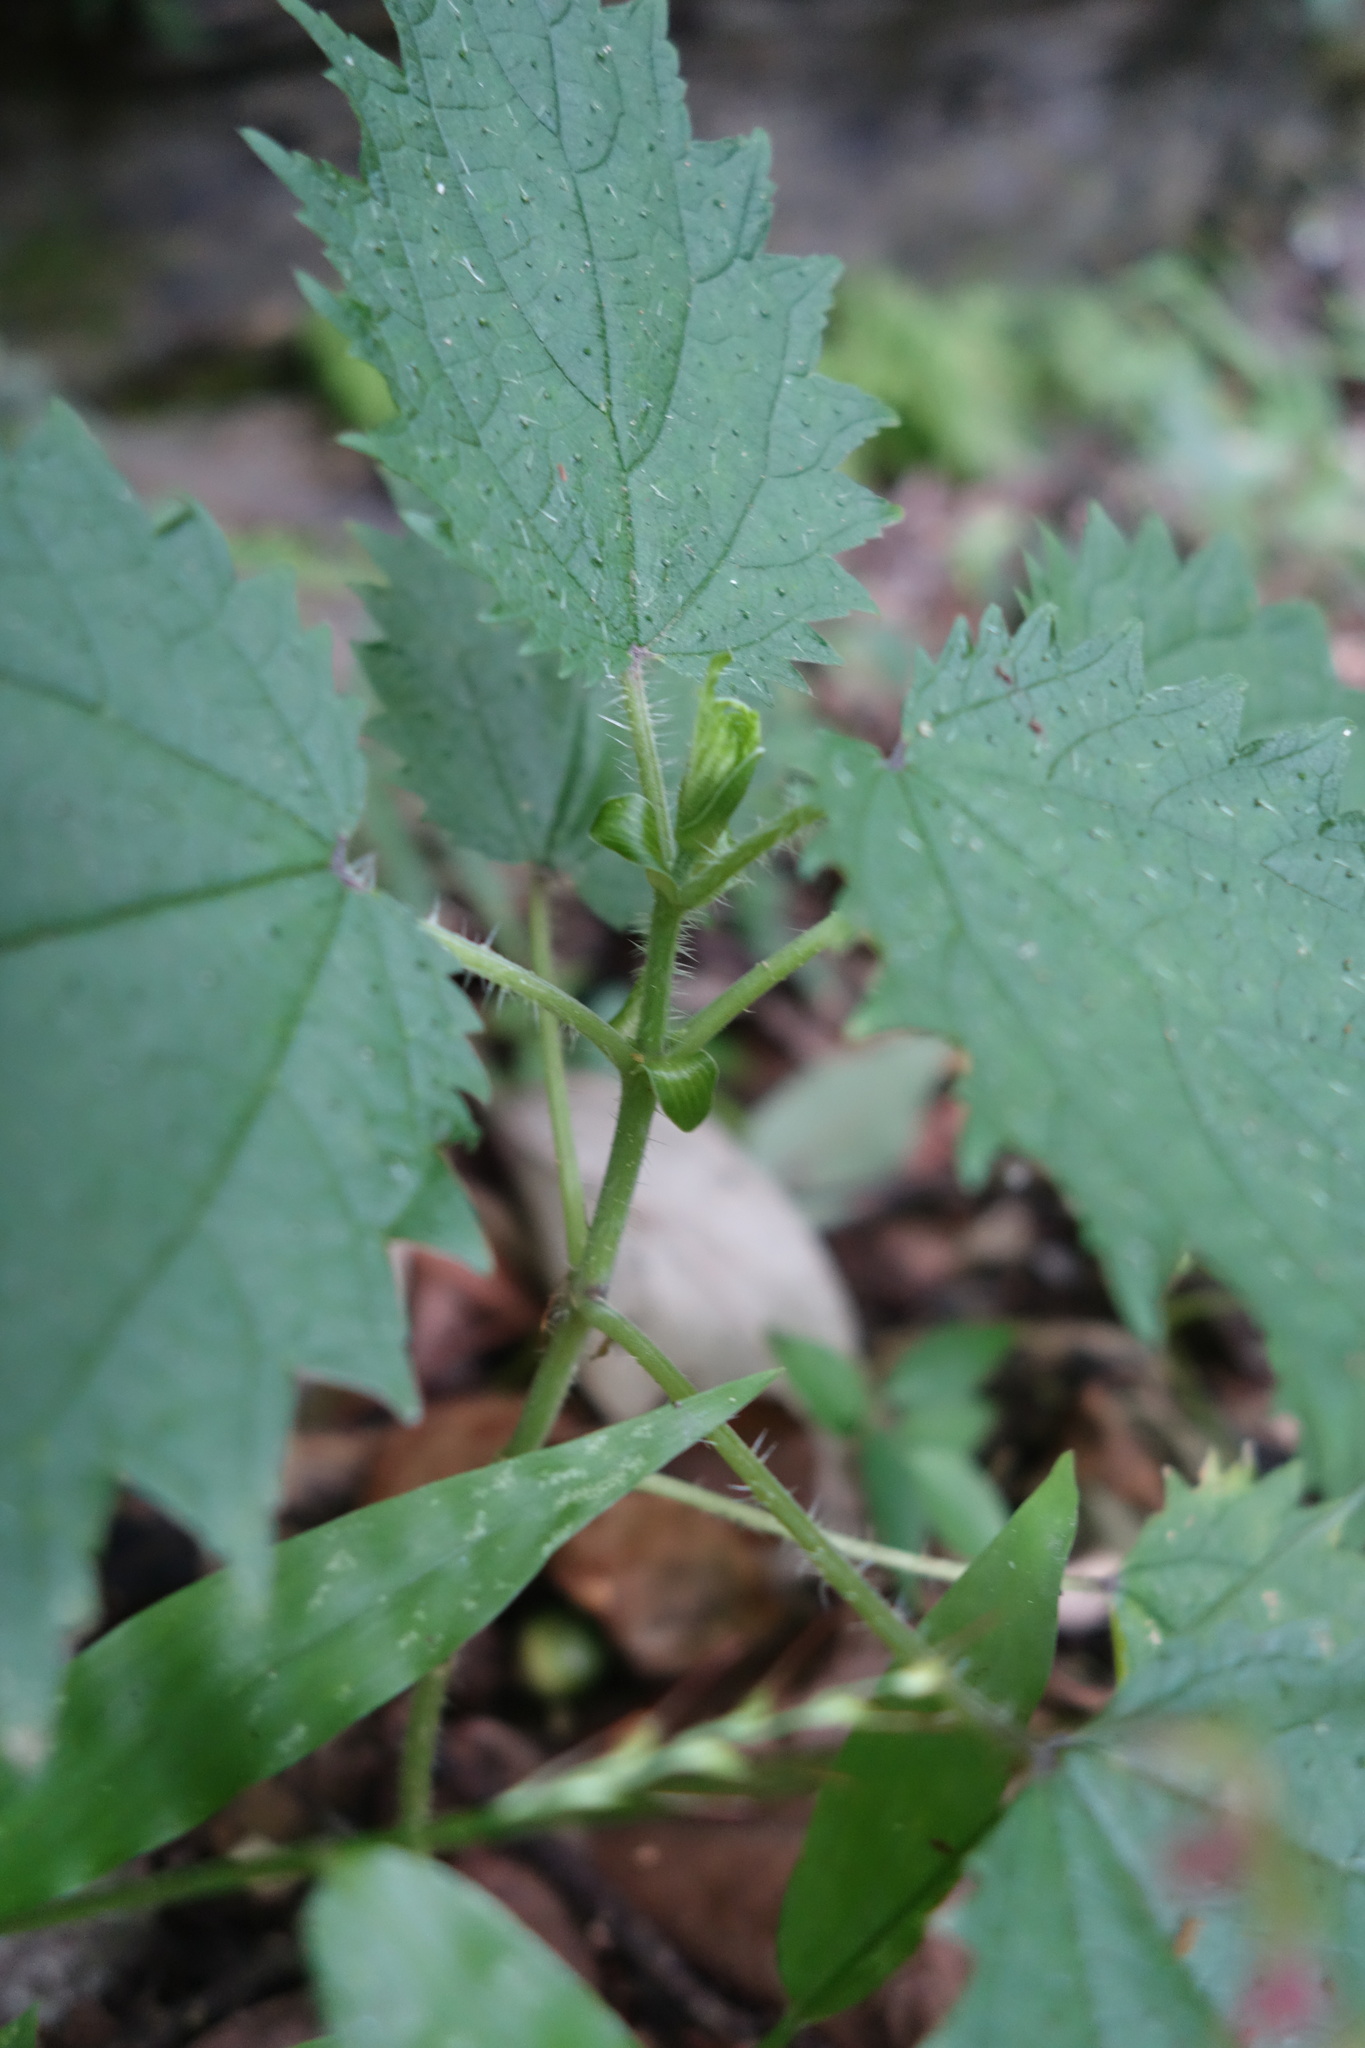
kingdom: Plantae
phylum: Tracheophyta
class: Magnoliopsida
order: Rosales
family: Urticaceae
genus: Urtica
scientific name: Urtica thunbergiana
